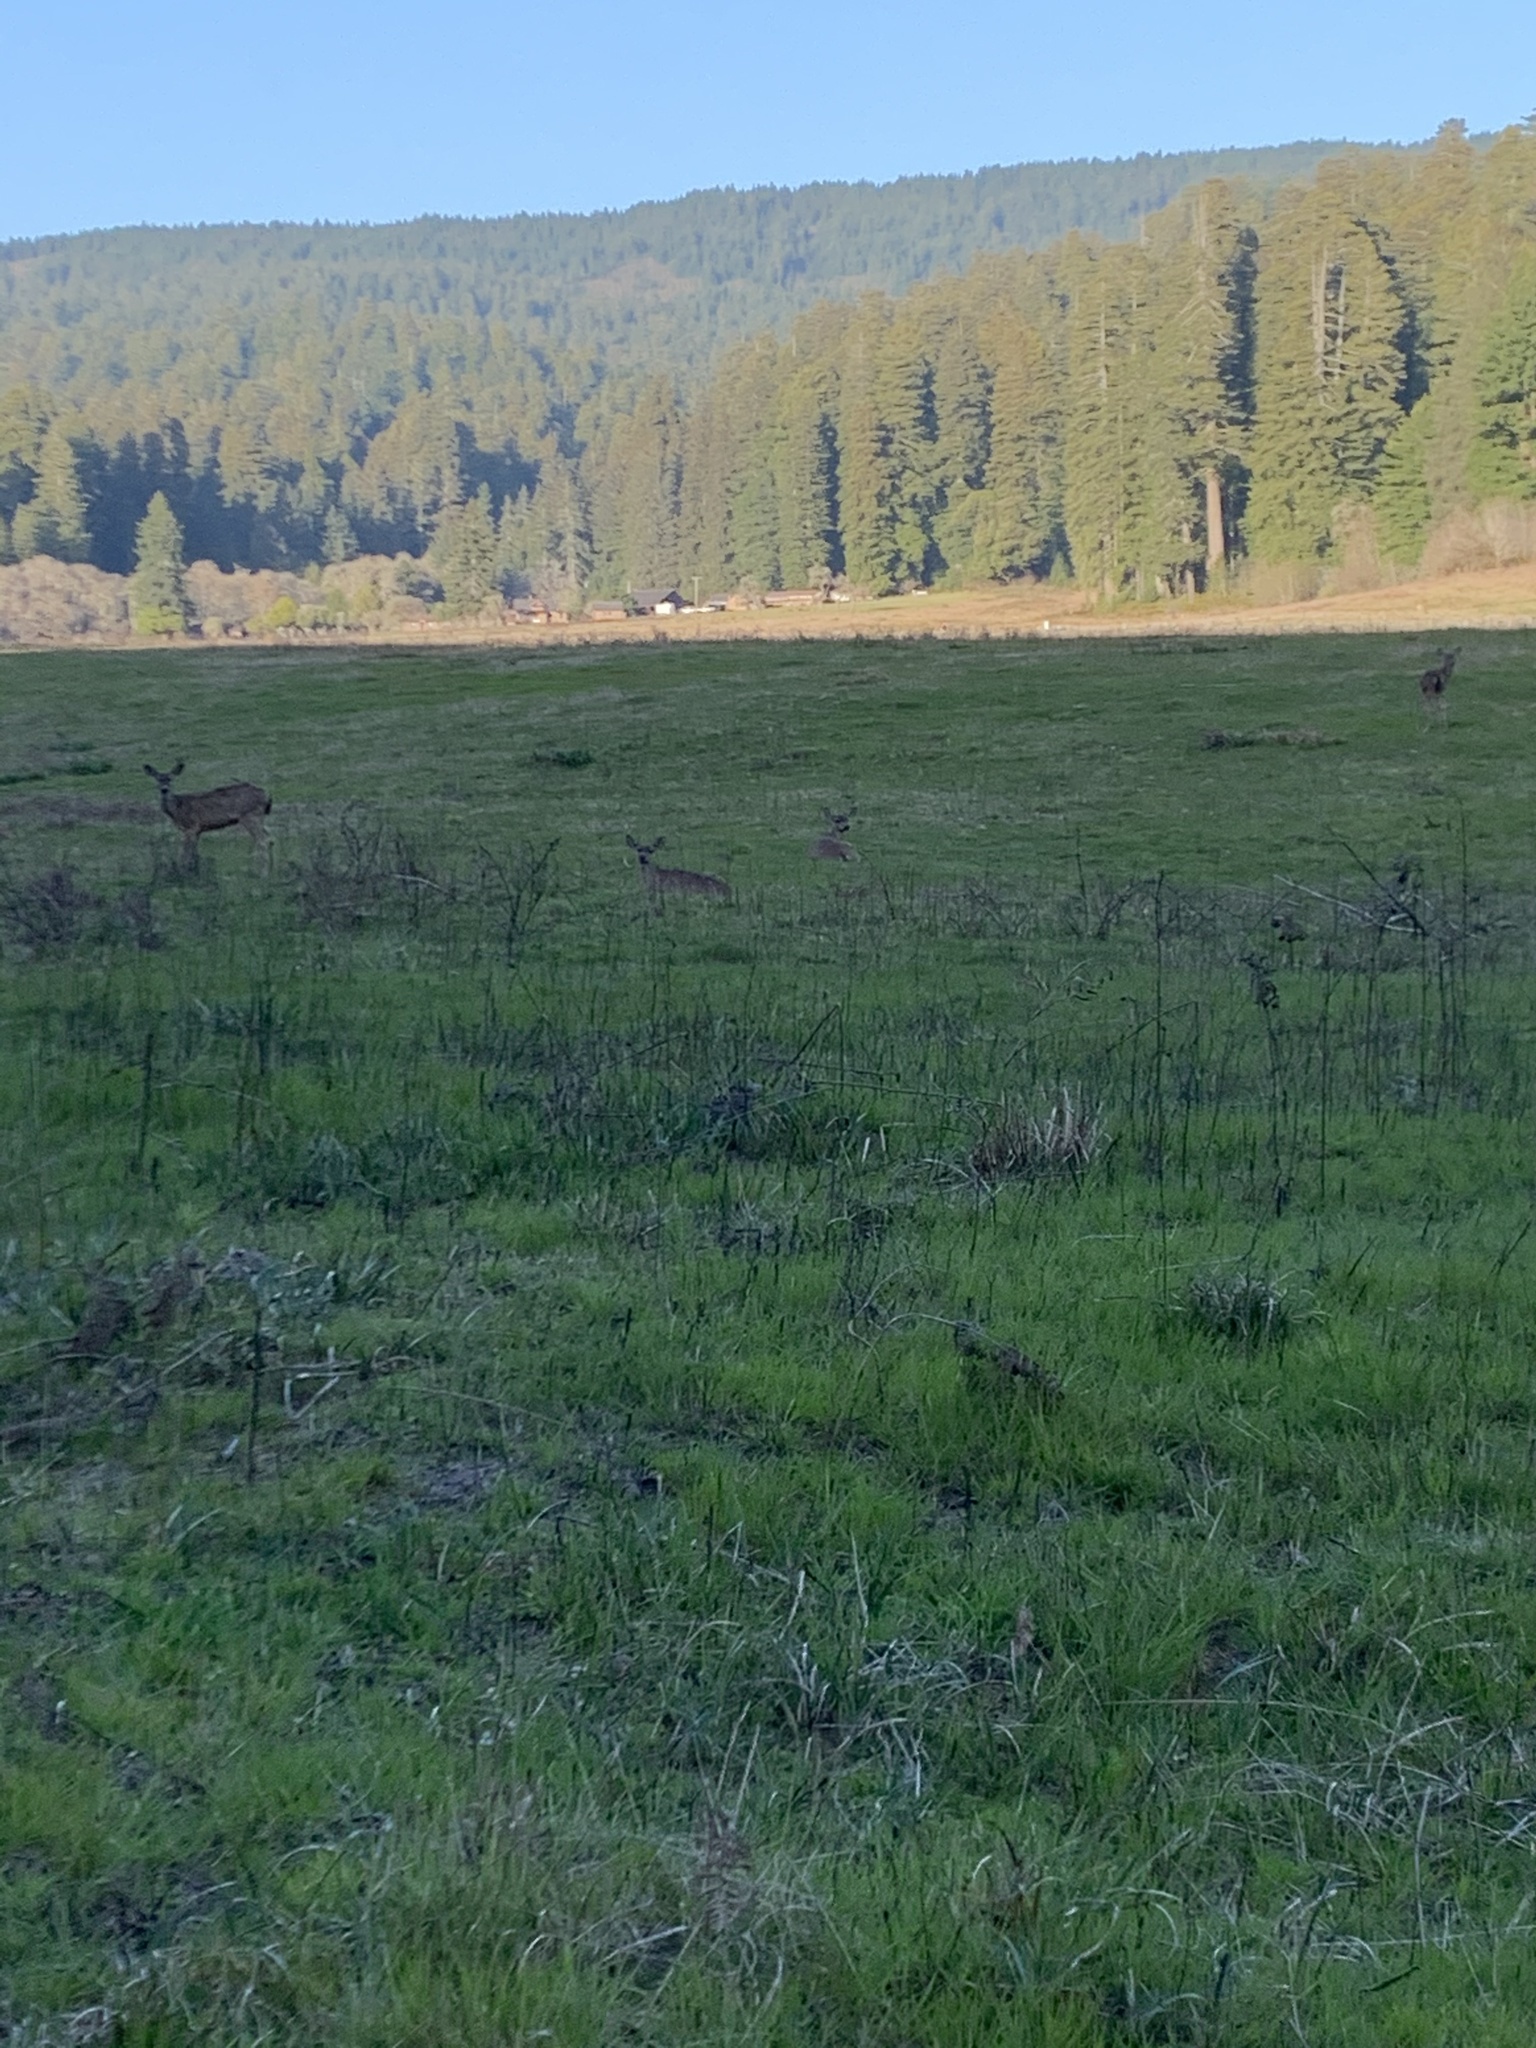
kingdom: Animalia
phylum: Chordata
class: Mammalia
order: Artiodactyla
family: Cervidae
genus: Odocoileus
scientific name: Odocoileus hemionus
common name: Mule deer
